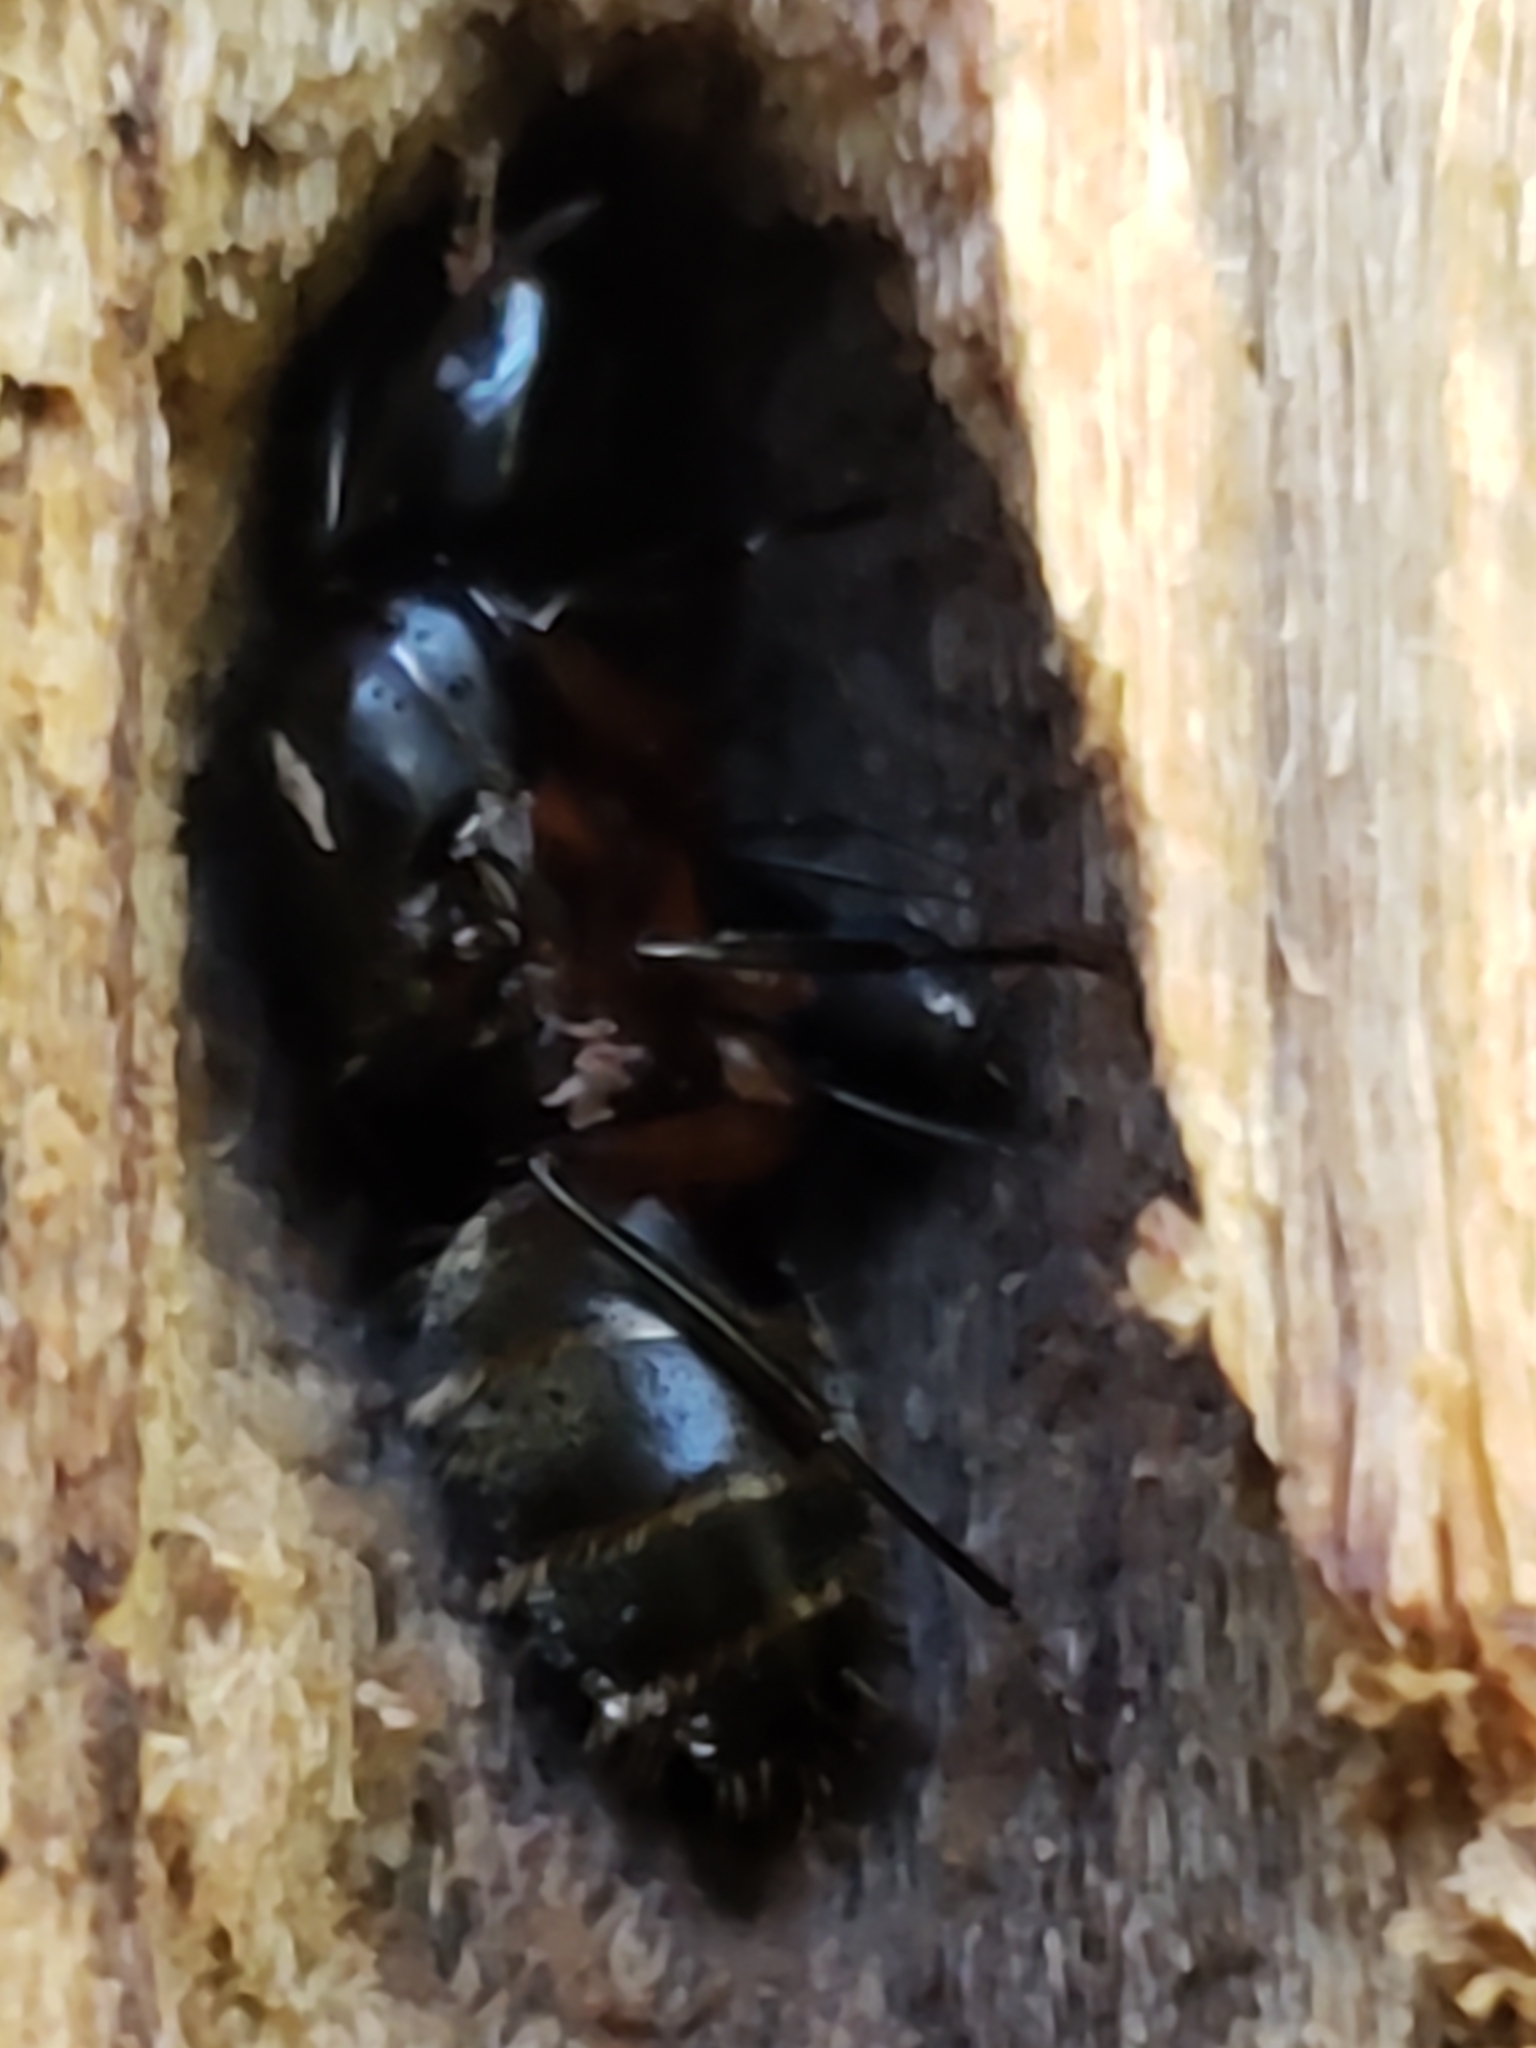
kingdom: Animalia
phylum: Arthropoda
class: Insecta
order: Hymenoptera
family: Formicidae
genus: Camponotus
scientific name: Camponotus chromaiodes
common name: Red carpenter ant
